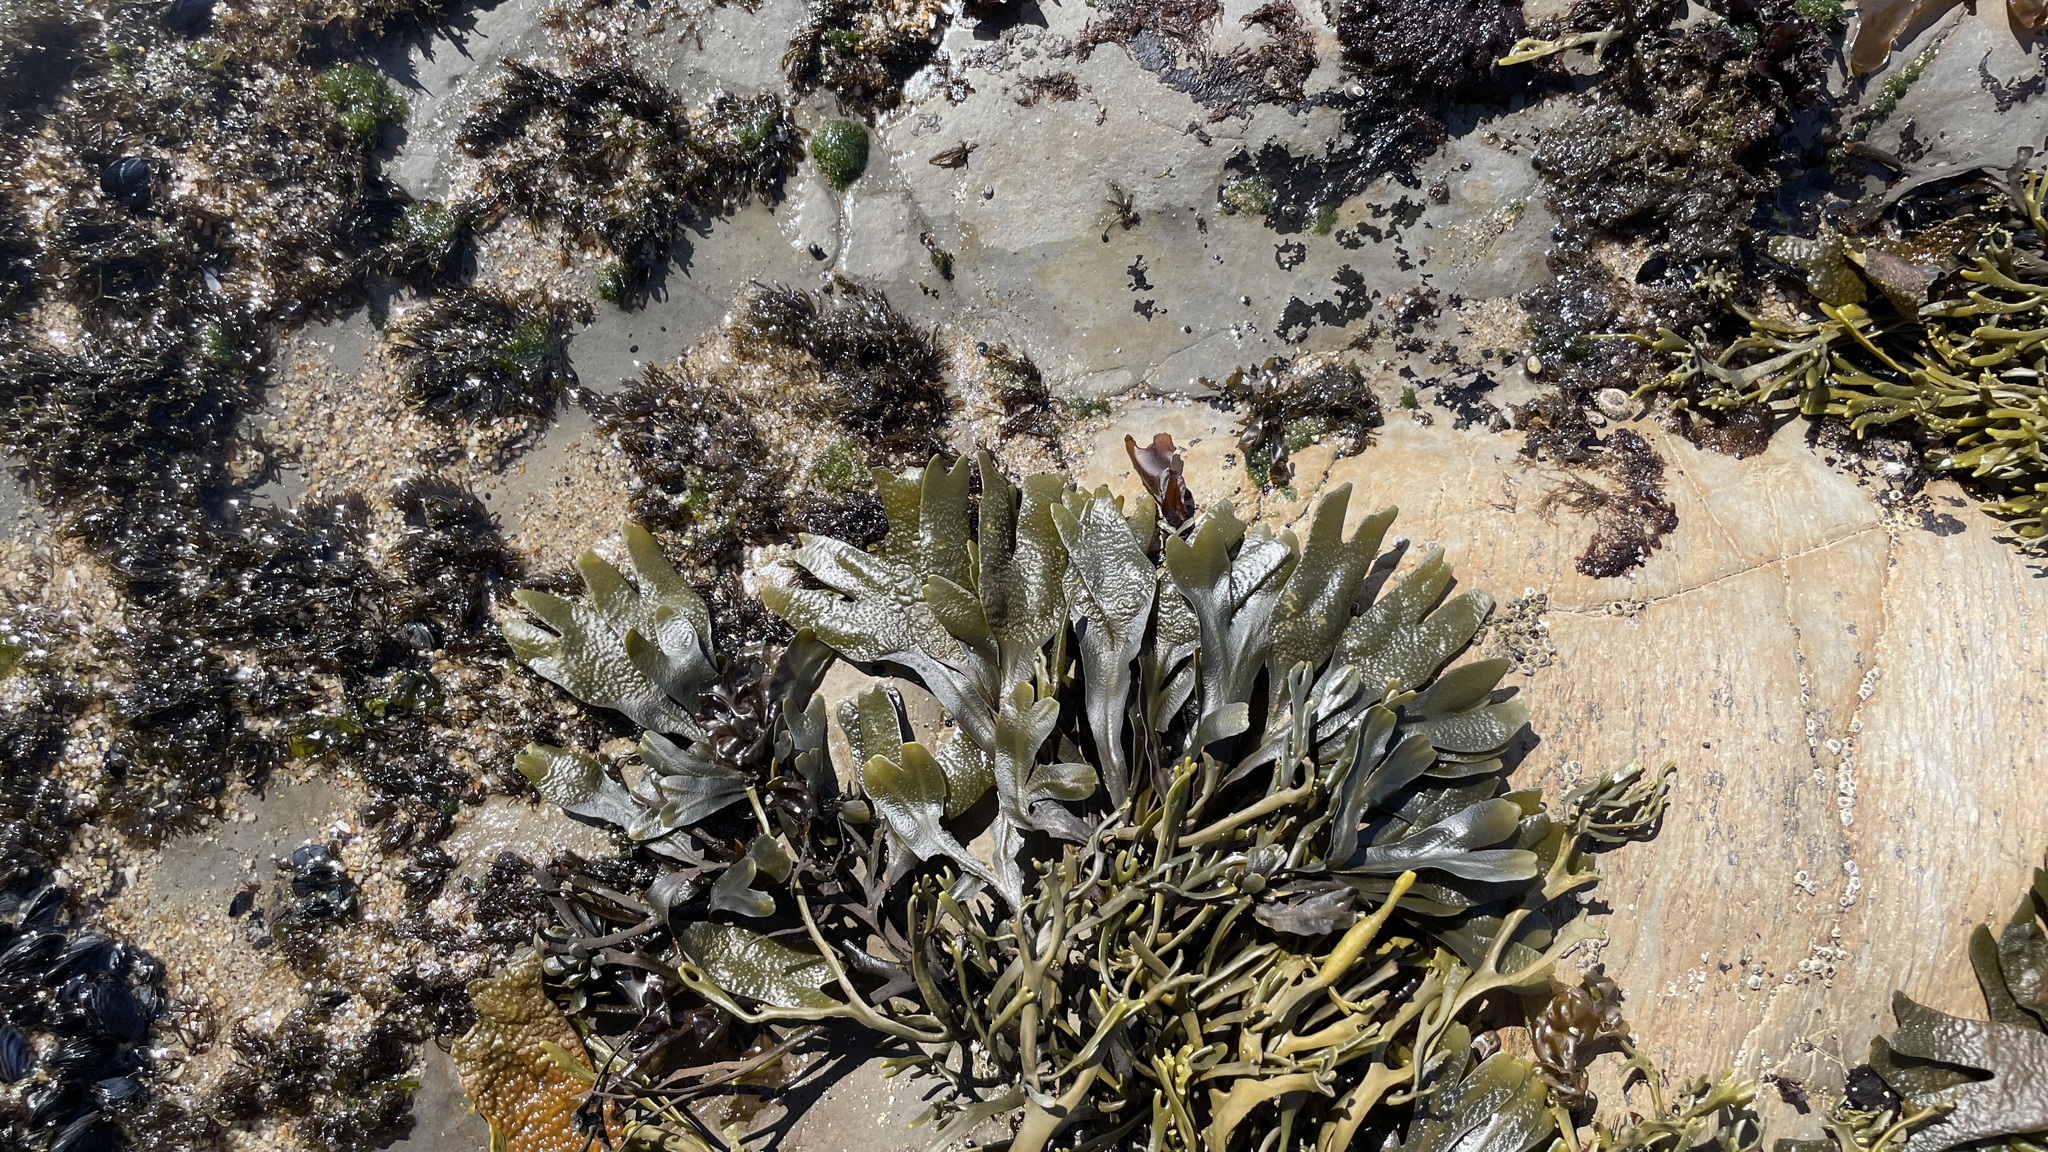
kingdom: Chromista
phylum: Ochrophyta
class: Phaeophyceae
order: Fucales
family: Fucaceae
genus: Fucus
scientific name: Fucus distichus
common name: Rockweed
